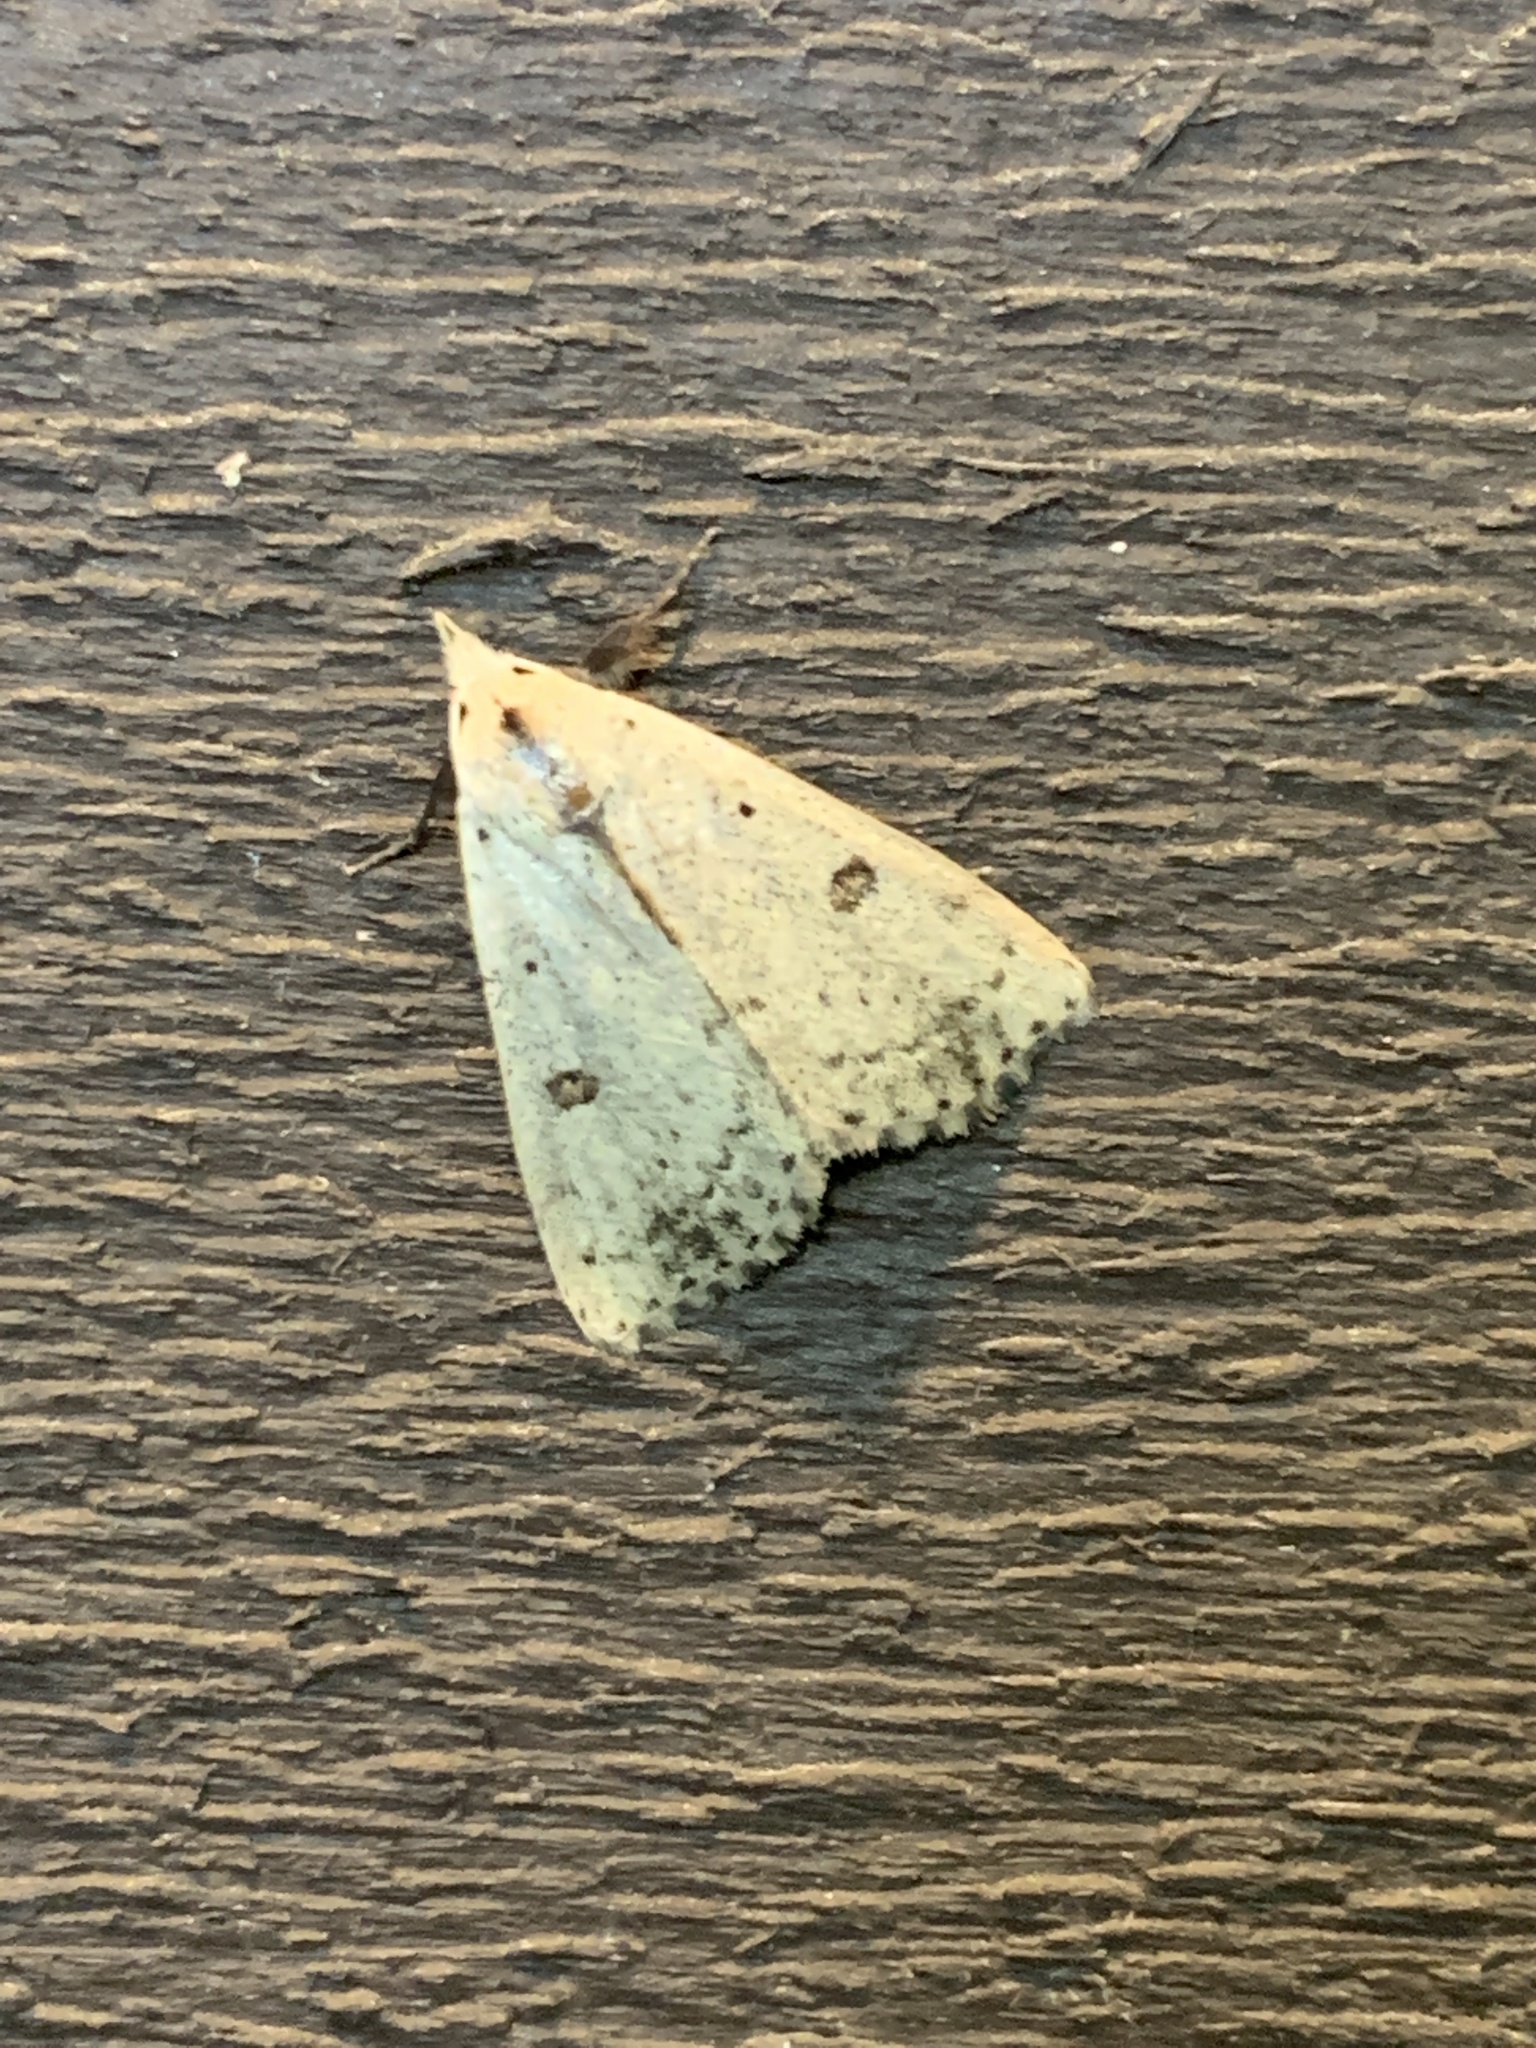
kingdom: Animalia
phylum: Arthropoda
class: Insecta
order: Lepidoptera
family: Erebidae
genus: Scolecocampa
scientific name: Scolecocampa liburna
